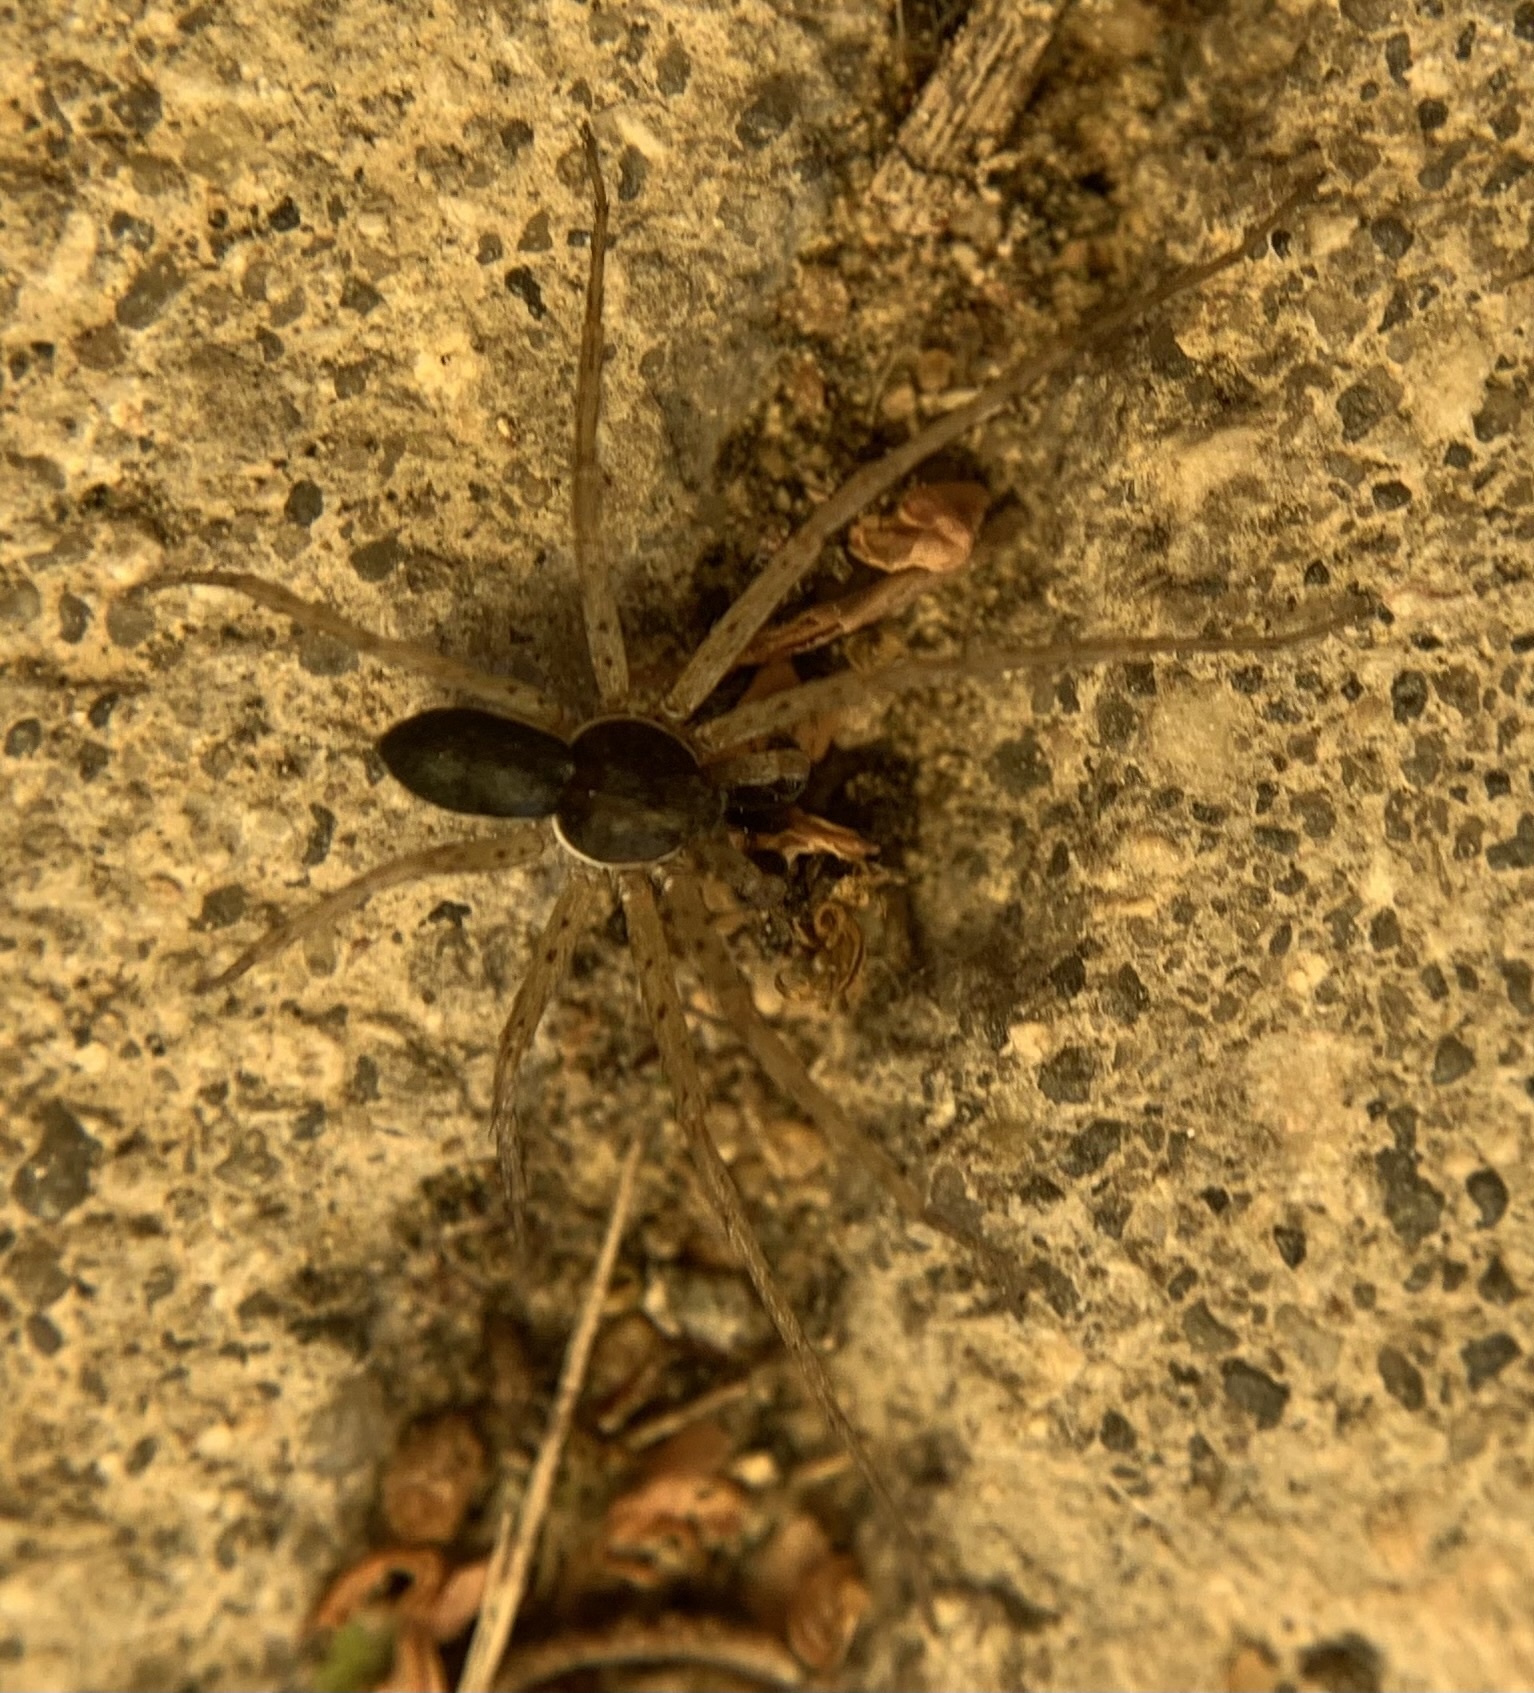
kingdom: Animalia
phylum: Arthropoda
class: Arachnida
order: Araneae
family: Philodromidae
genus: Philodromus
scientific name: Philodromus dispar
